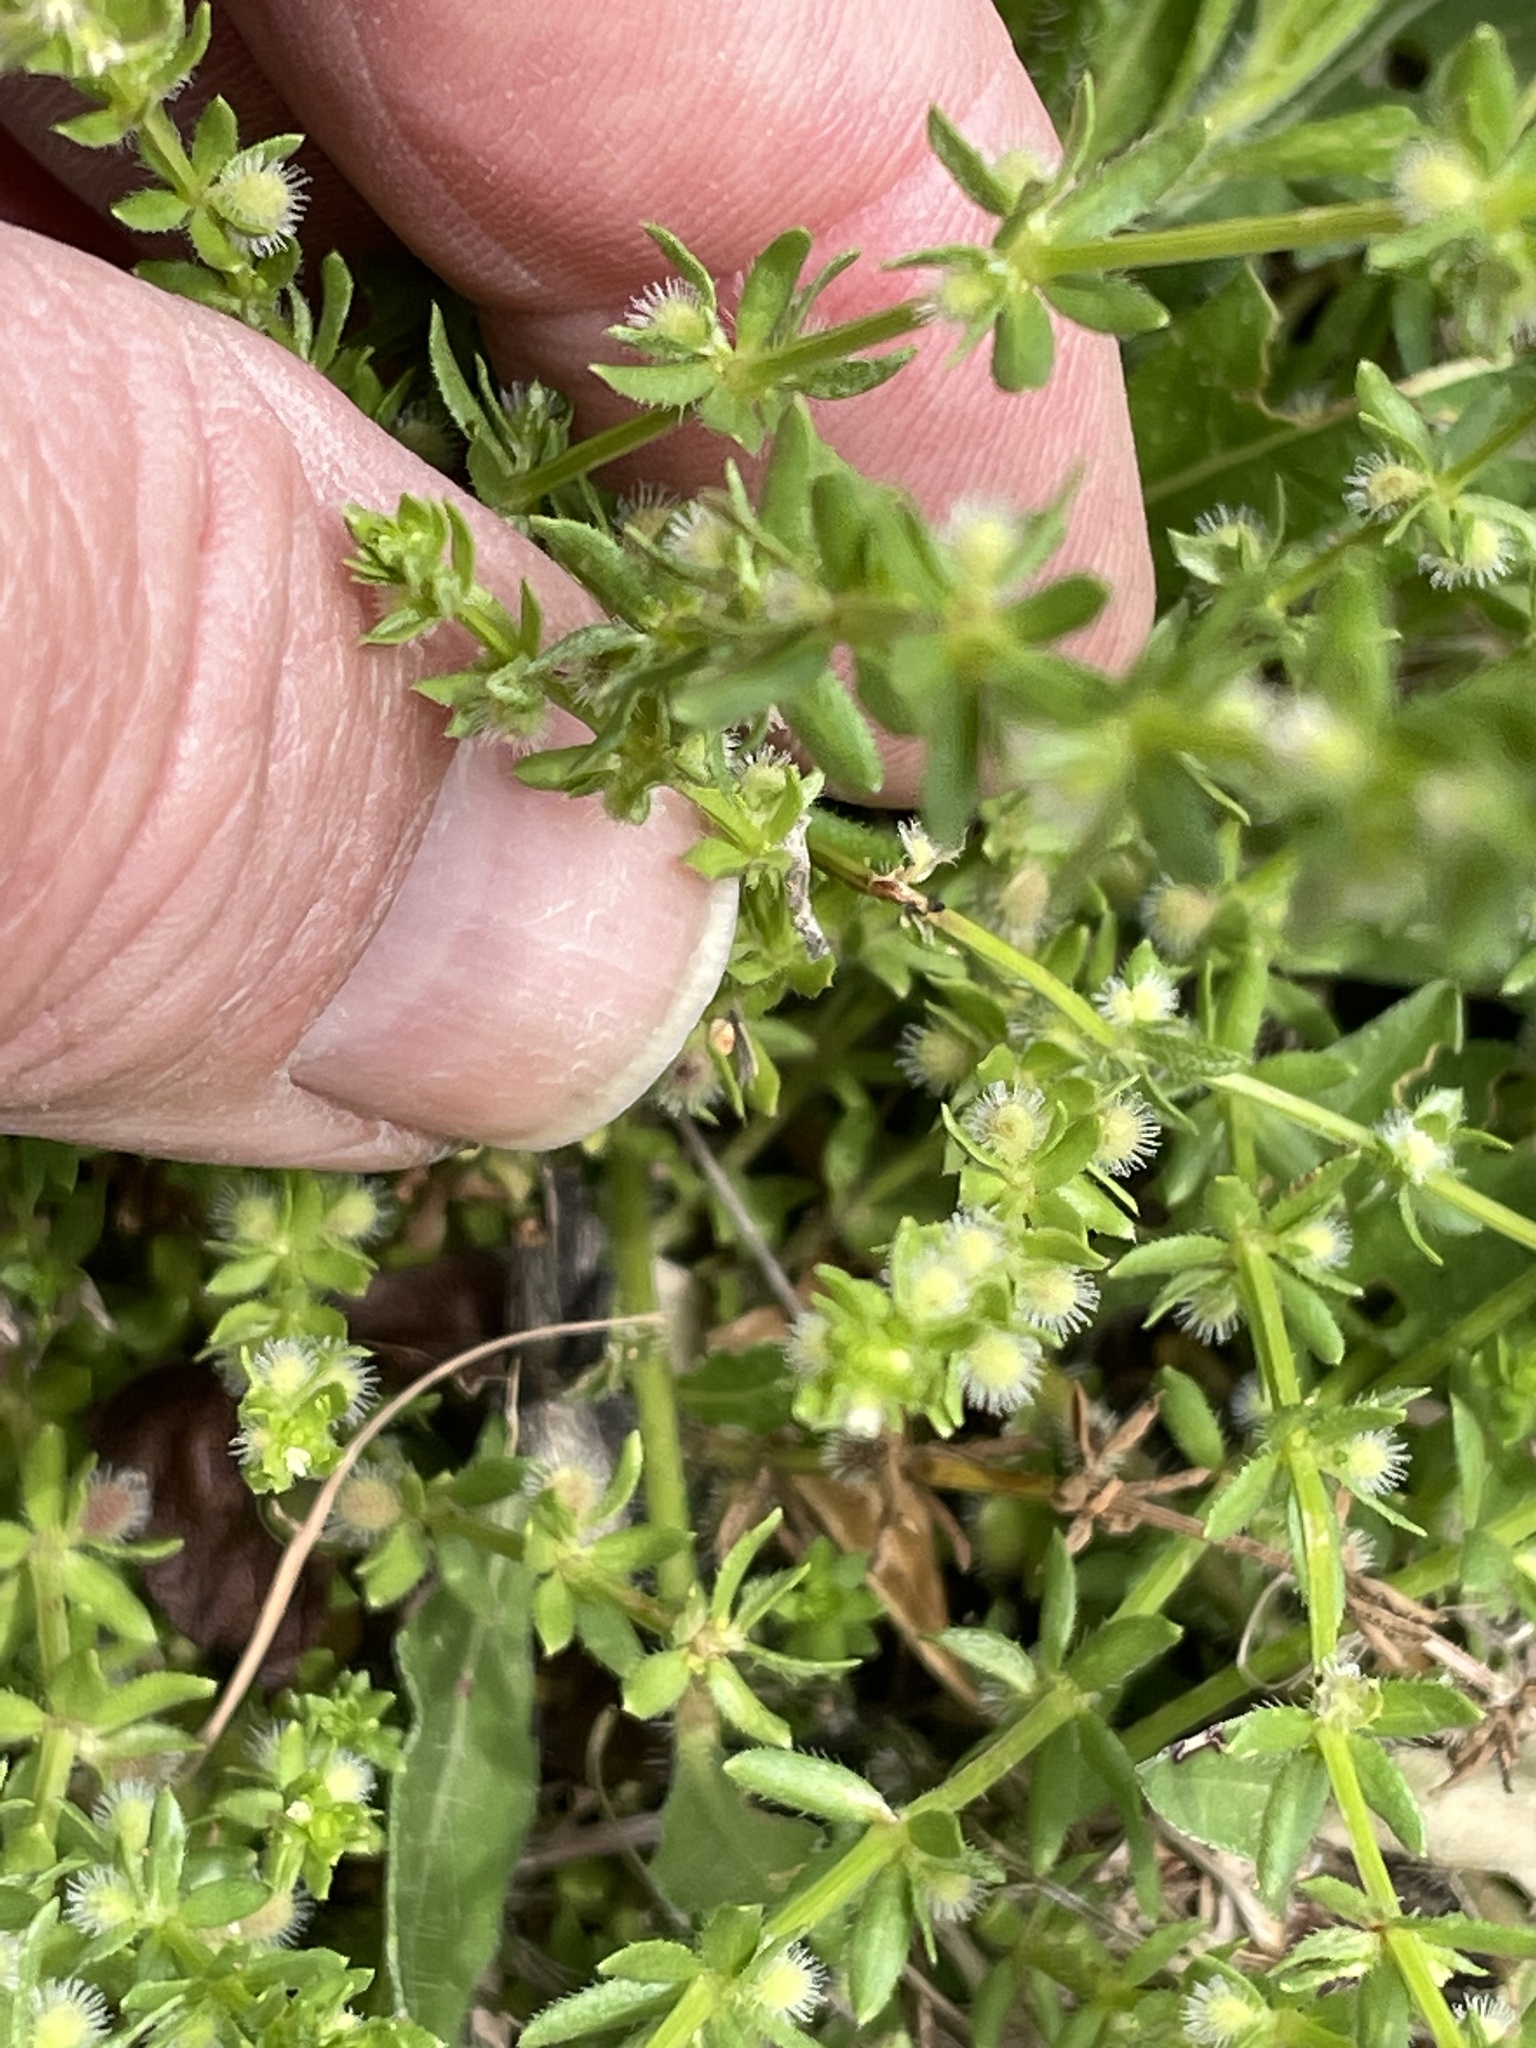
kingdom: Plantae
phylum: Tracheophyta
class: Magnoliopsida
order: Gentianales
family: Rubiaceae
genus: Galium
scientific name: Galium virgatum
